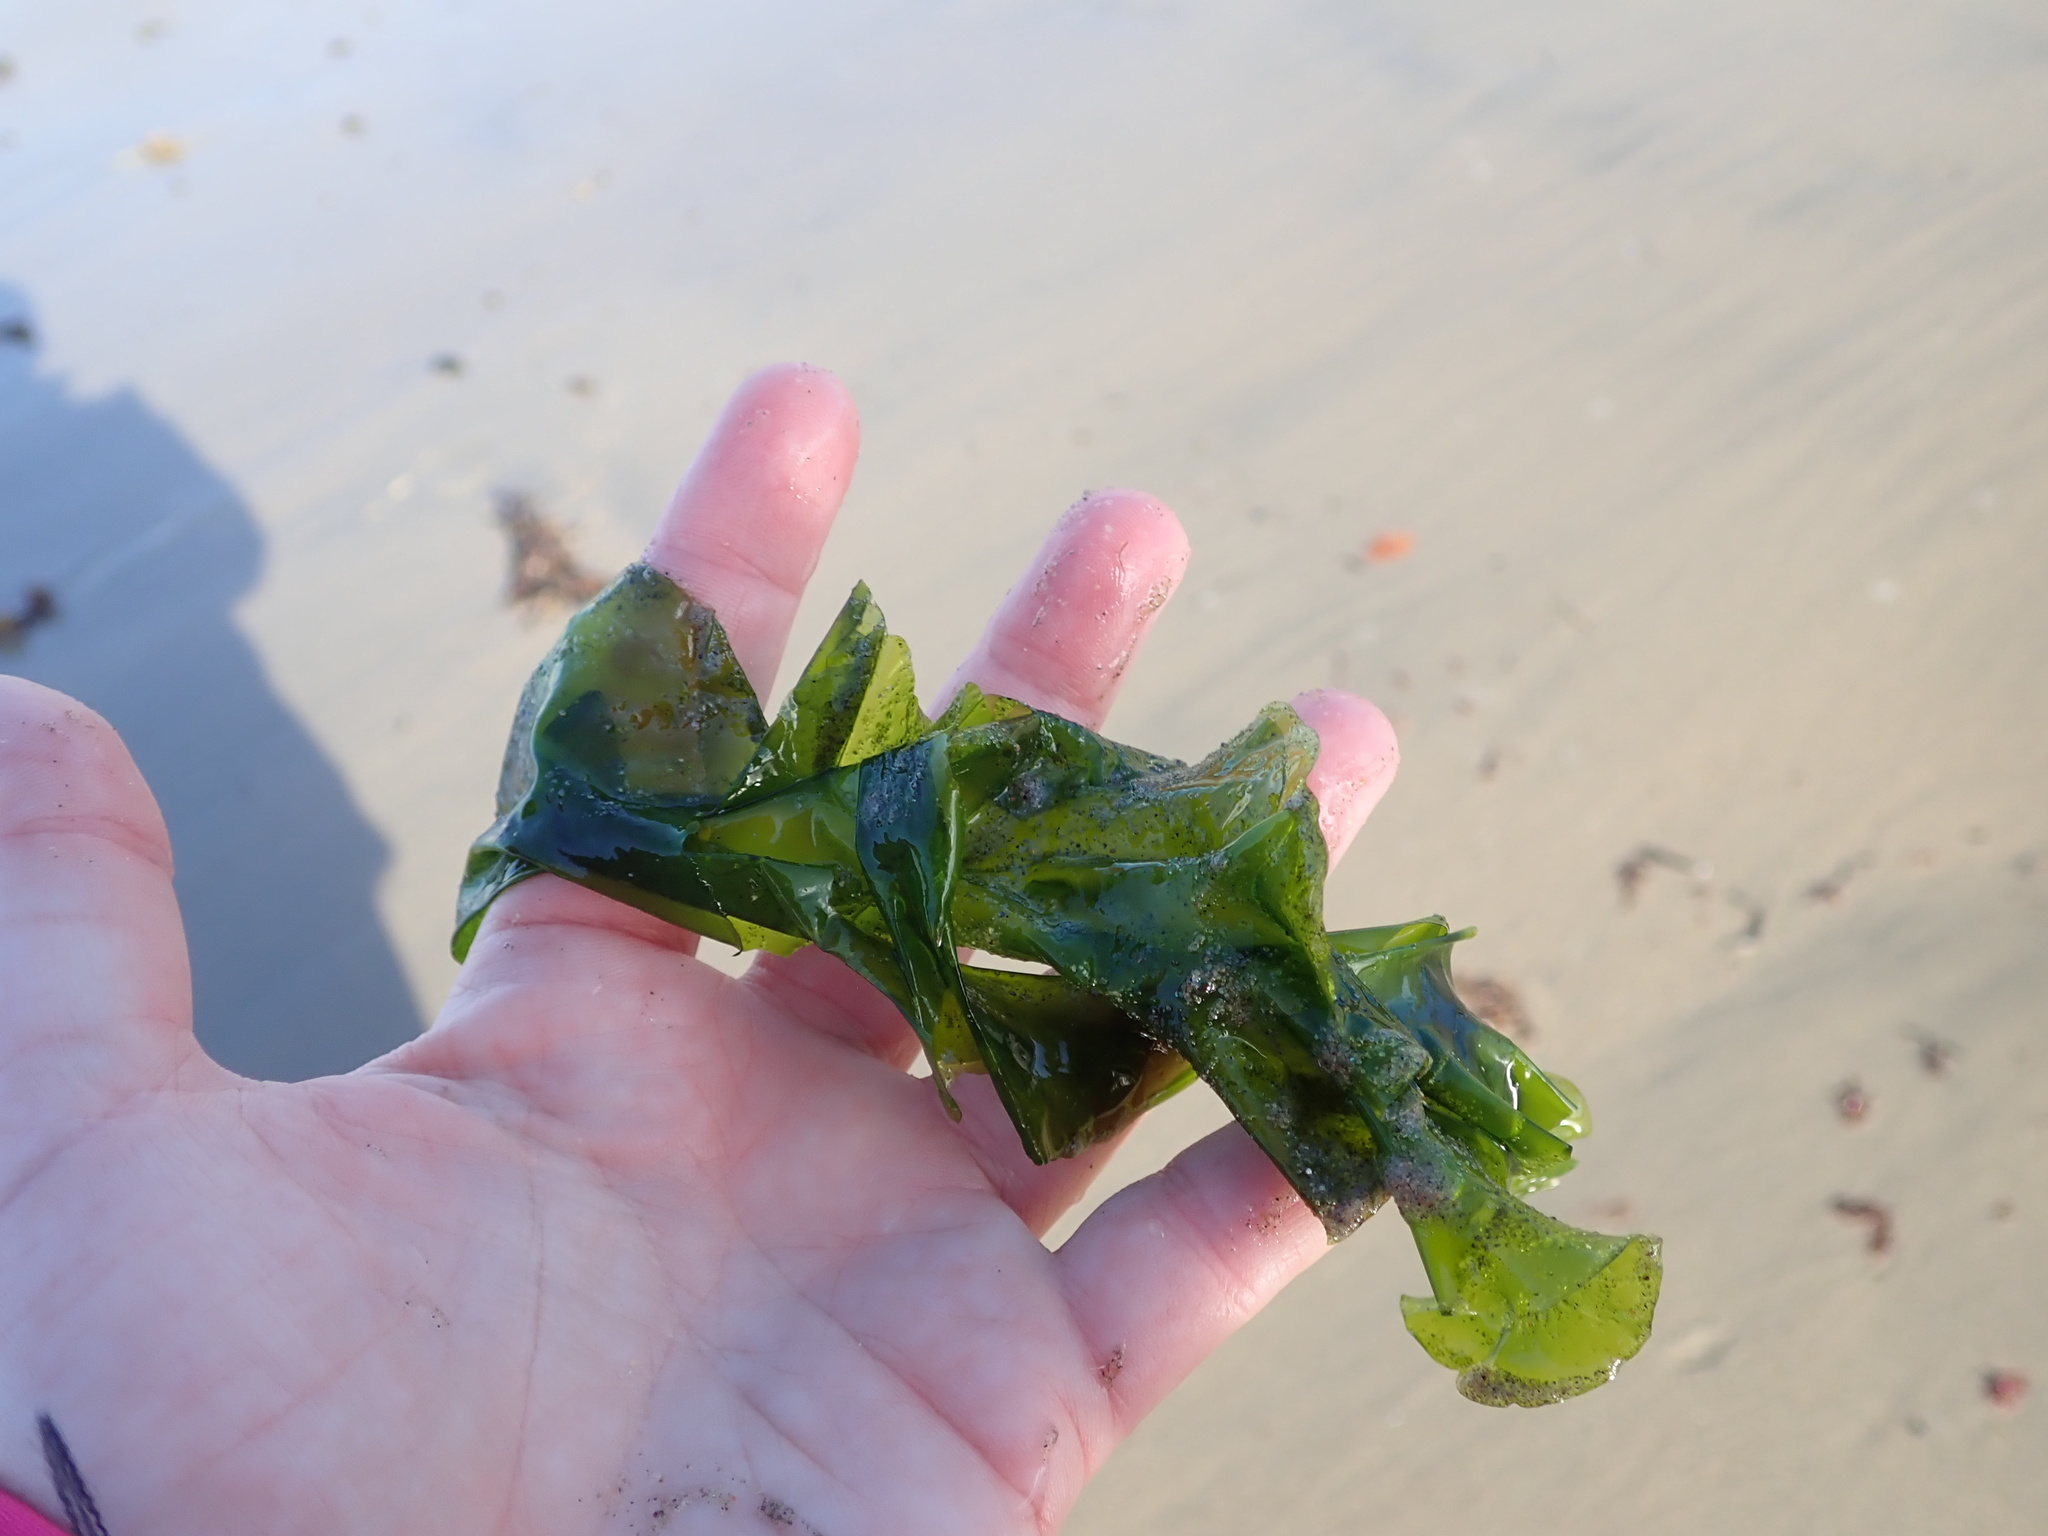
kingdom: Plantae
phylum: Chlorophyta
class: Ulvophyceae
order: Ulvales
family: Ulvaceae
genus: Ulva
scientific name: Ulva lactuca
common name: Sea lettuce
